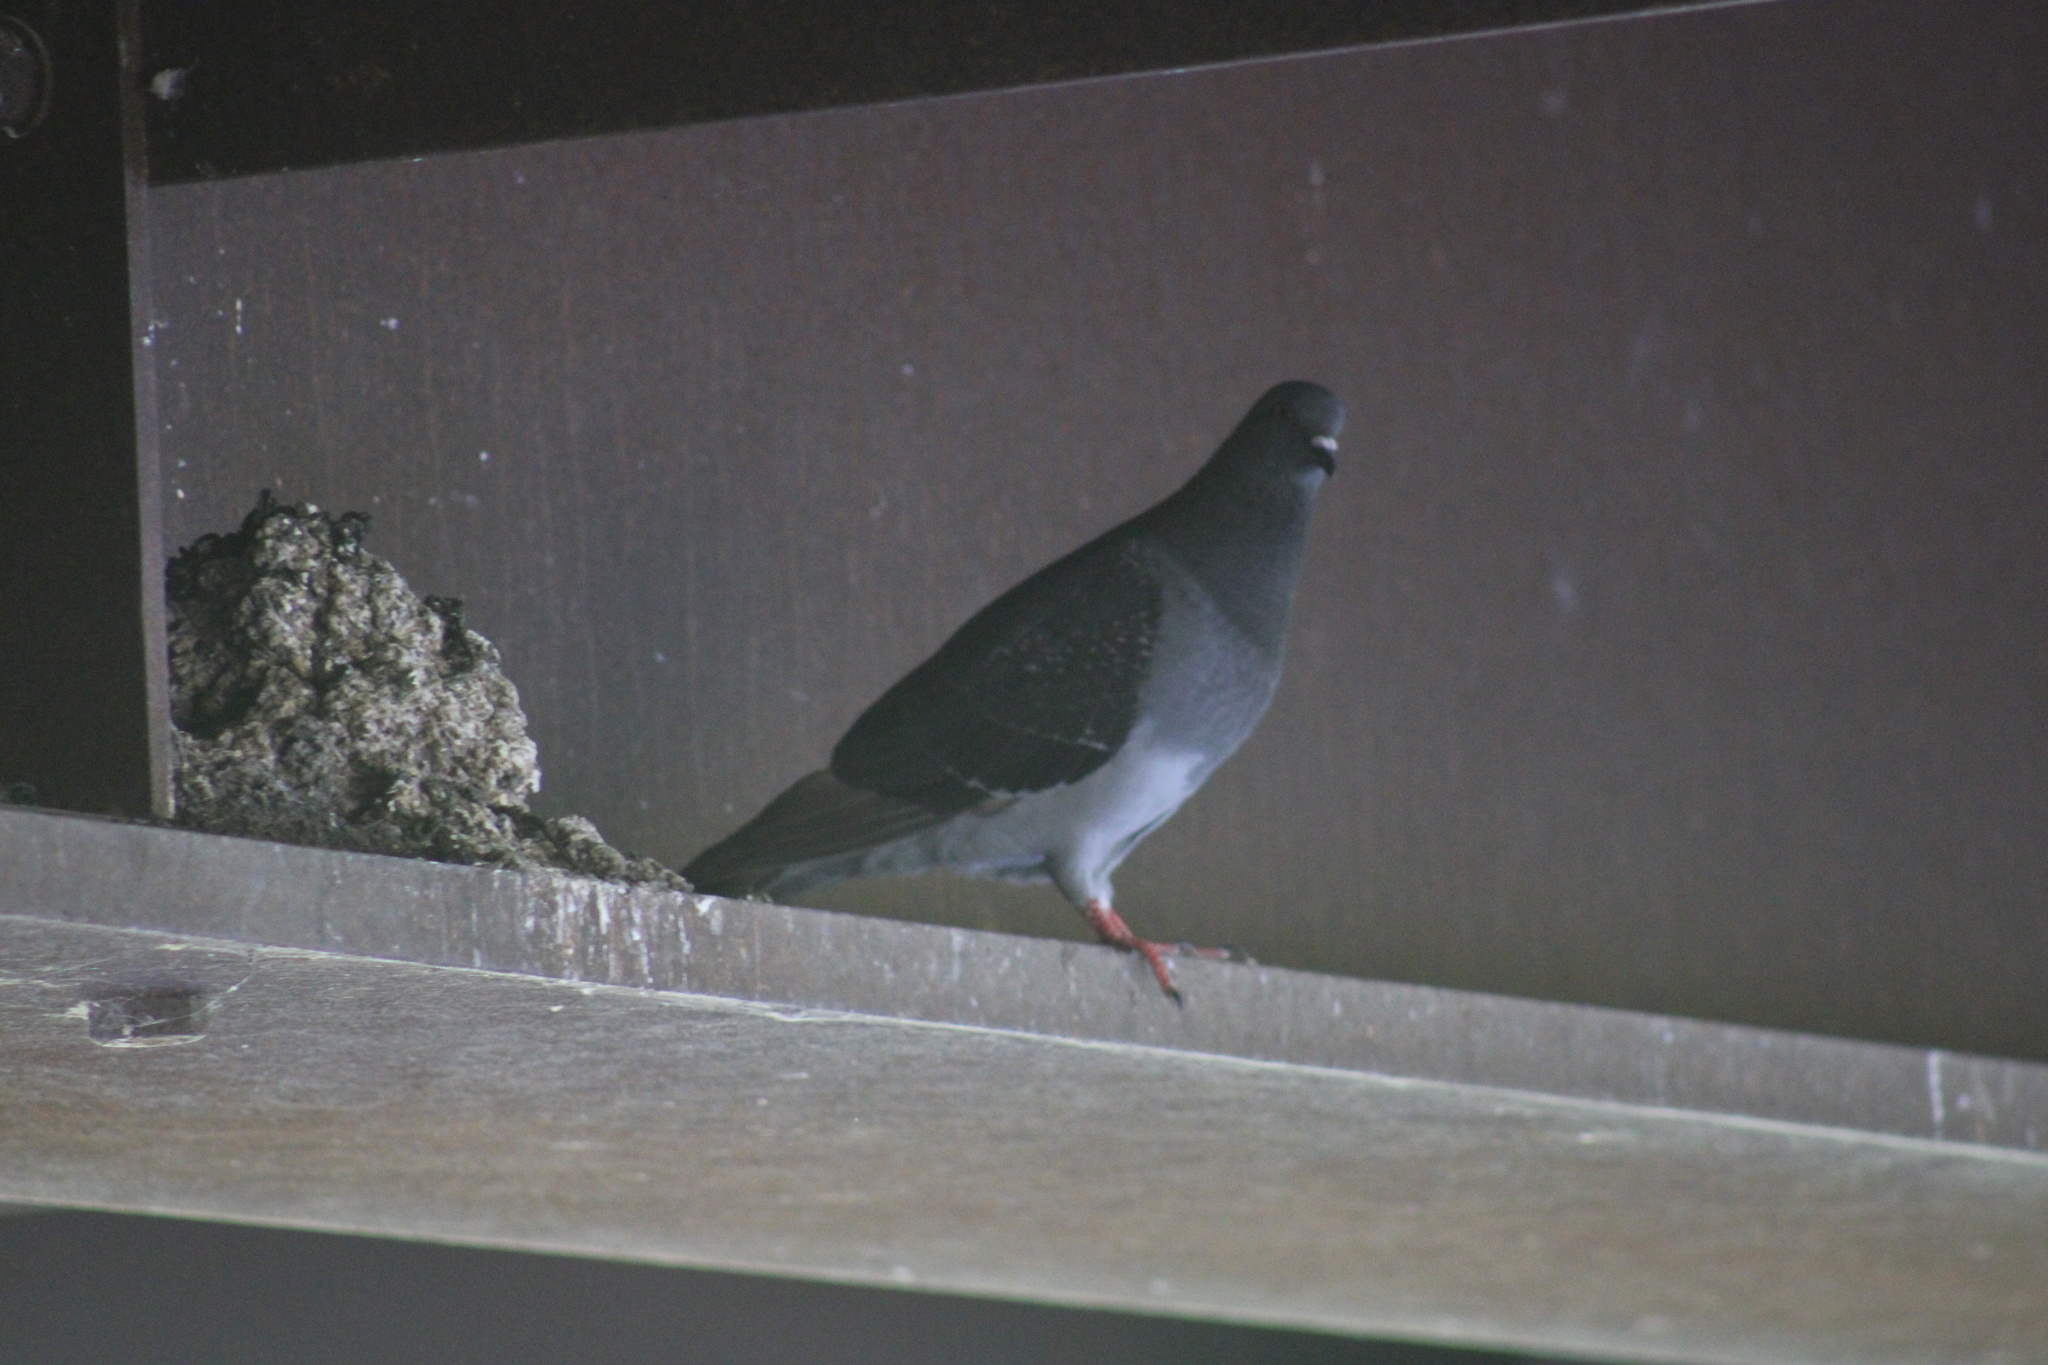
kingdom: Animalia
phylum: Chordata
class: Aves
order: Columbiformes
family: Columbidae
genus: Columba
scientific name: Columba livia
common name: Rock pigeon
